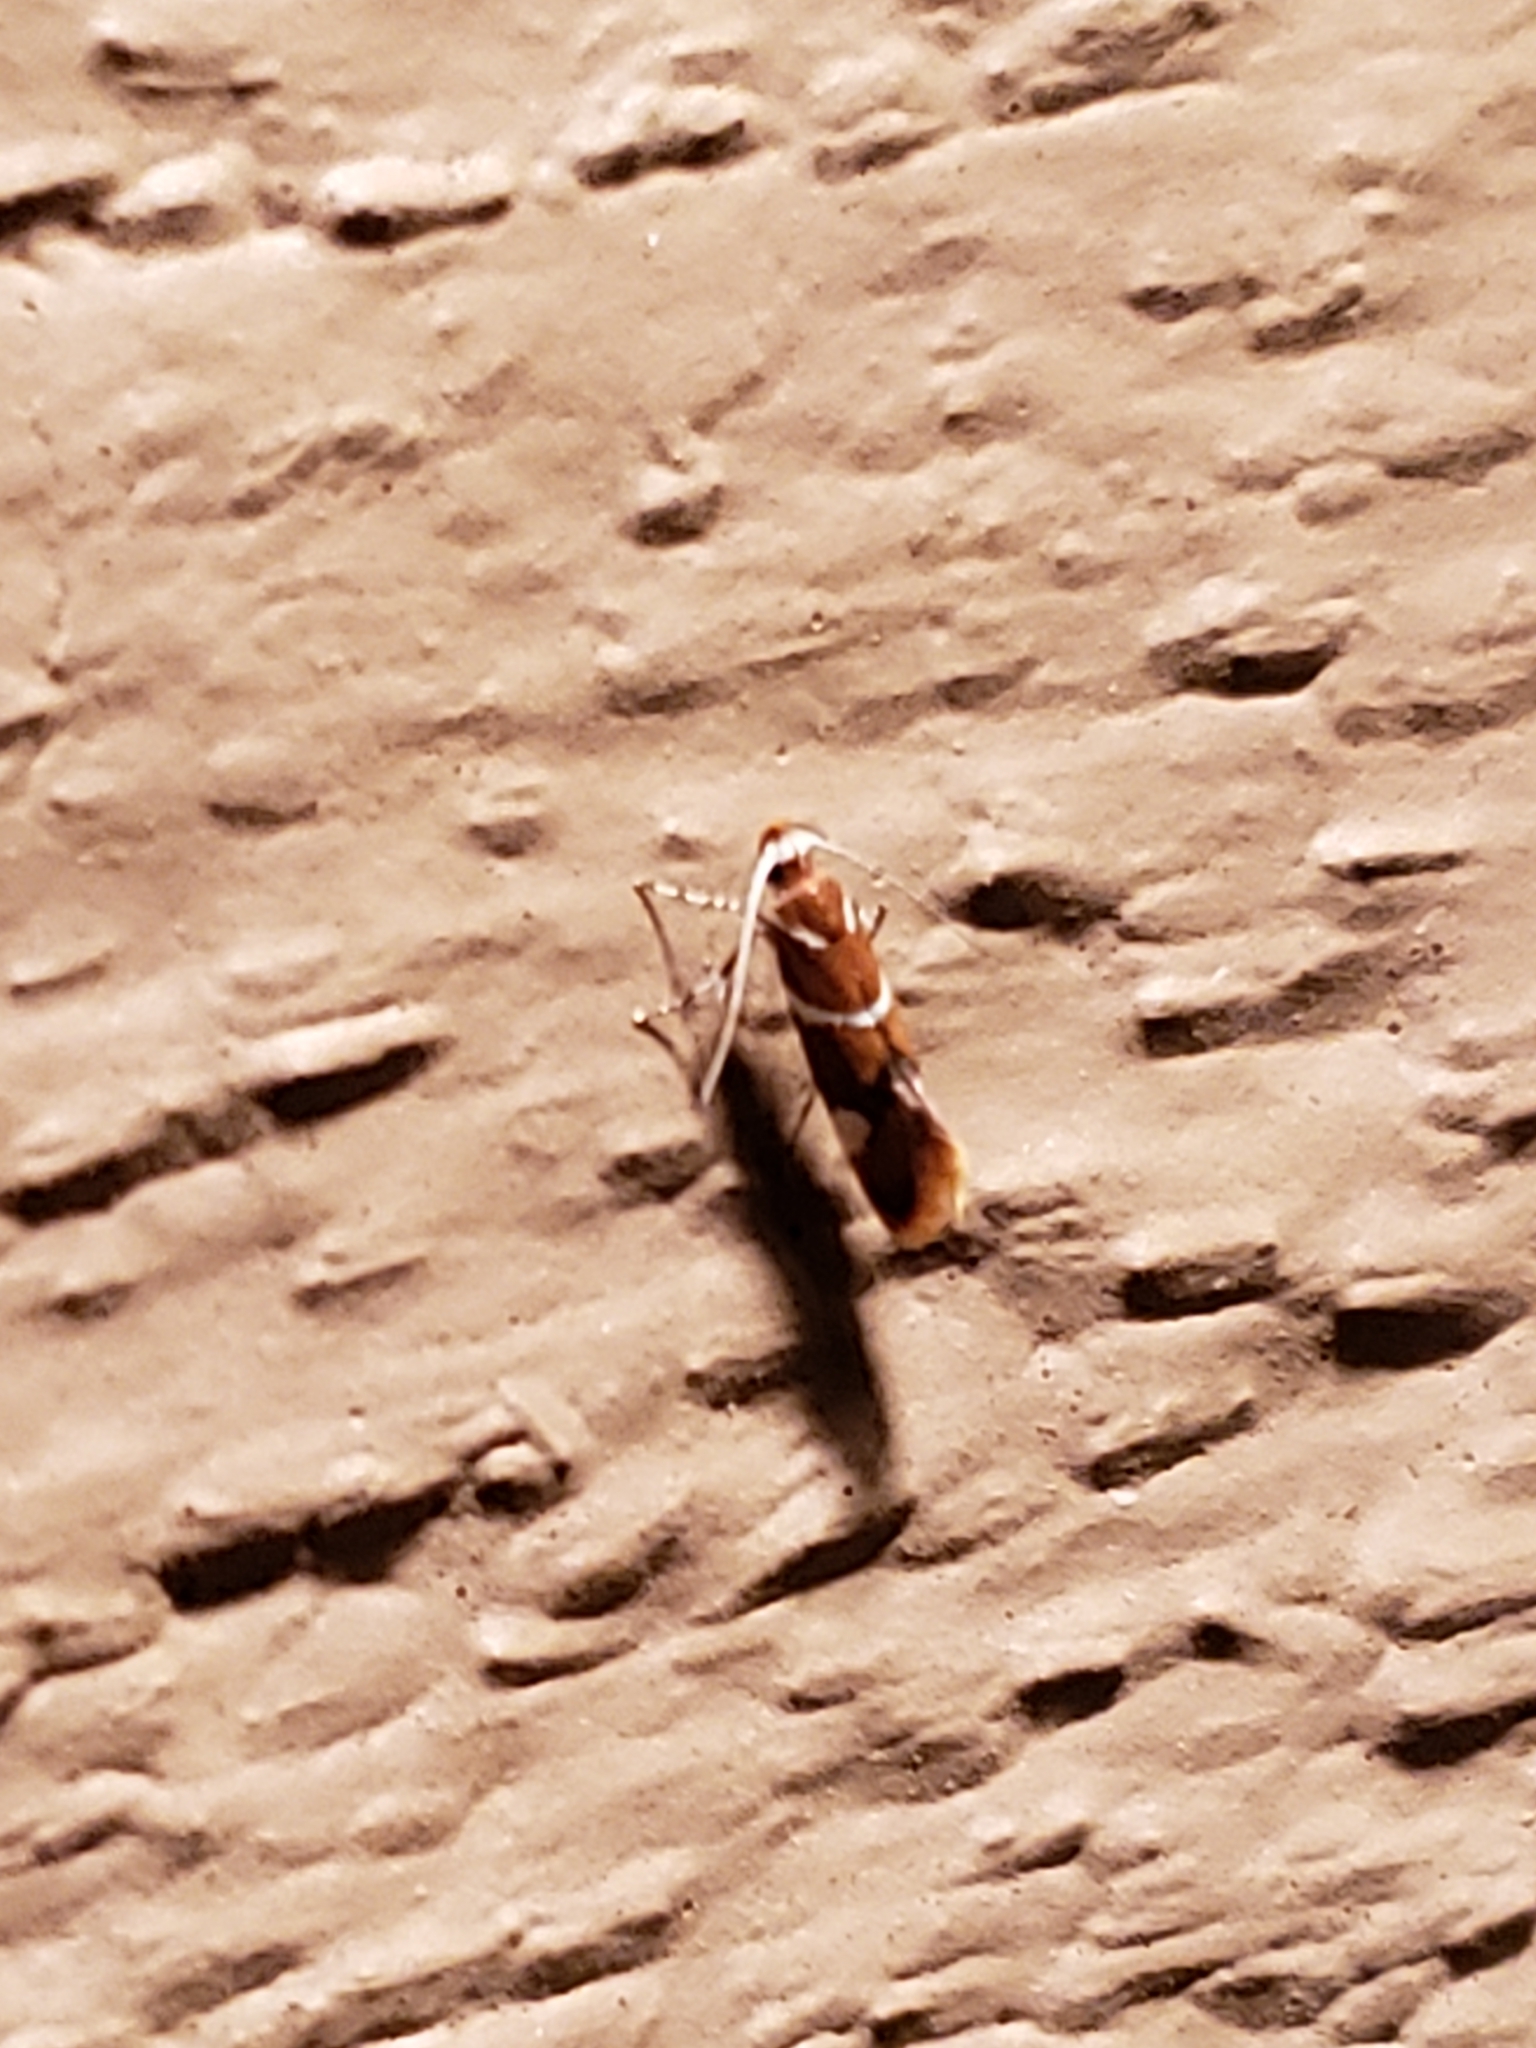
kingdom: Animalia
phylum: Arthropoda
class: Insecta
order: Lepidoptera
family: Oecophoridae
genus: Promalactis
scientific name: Promalactis suzukiella
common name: Moth
